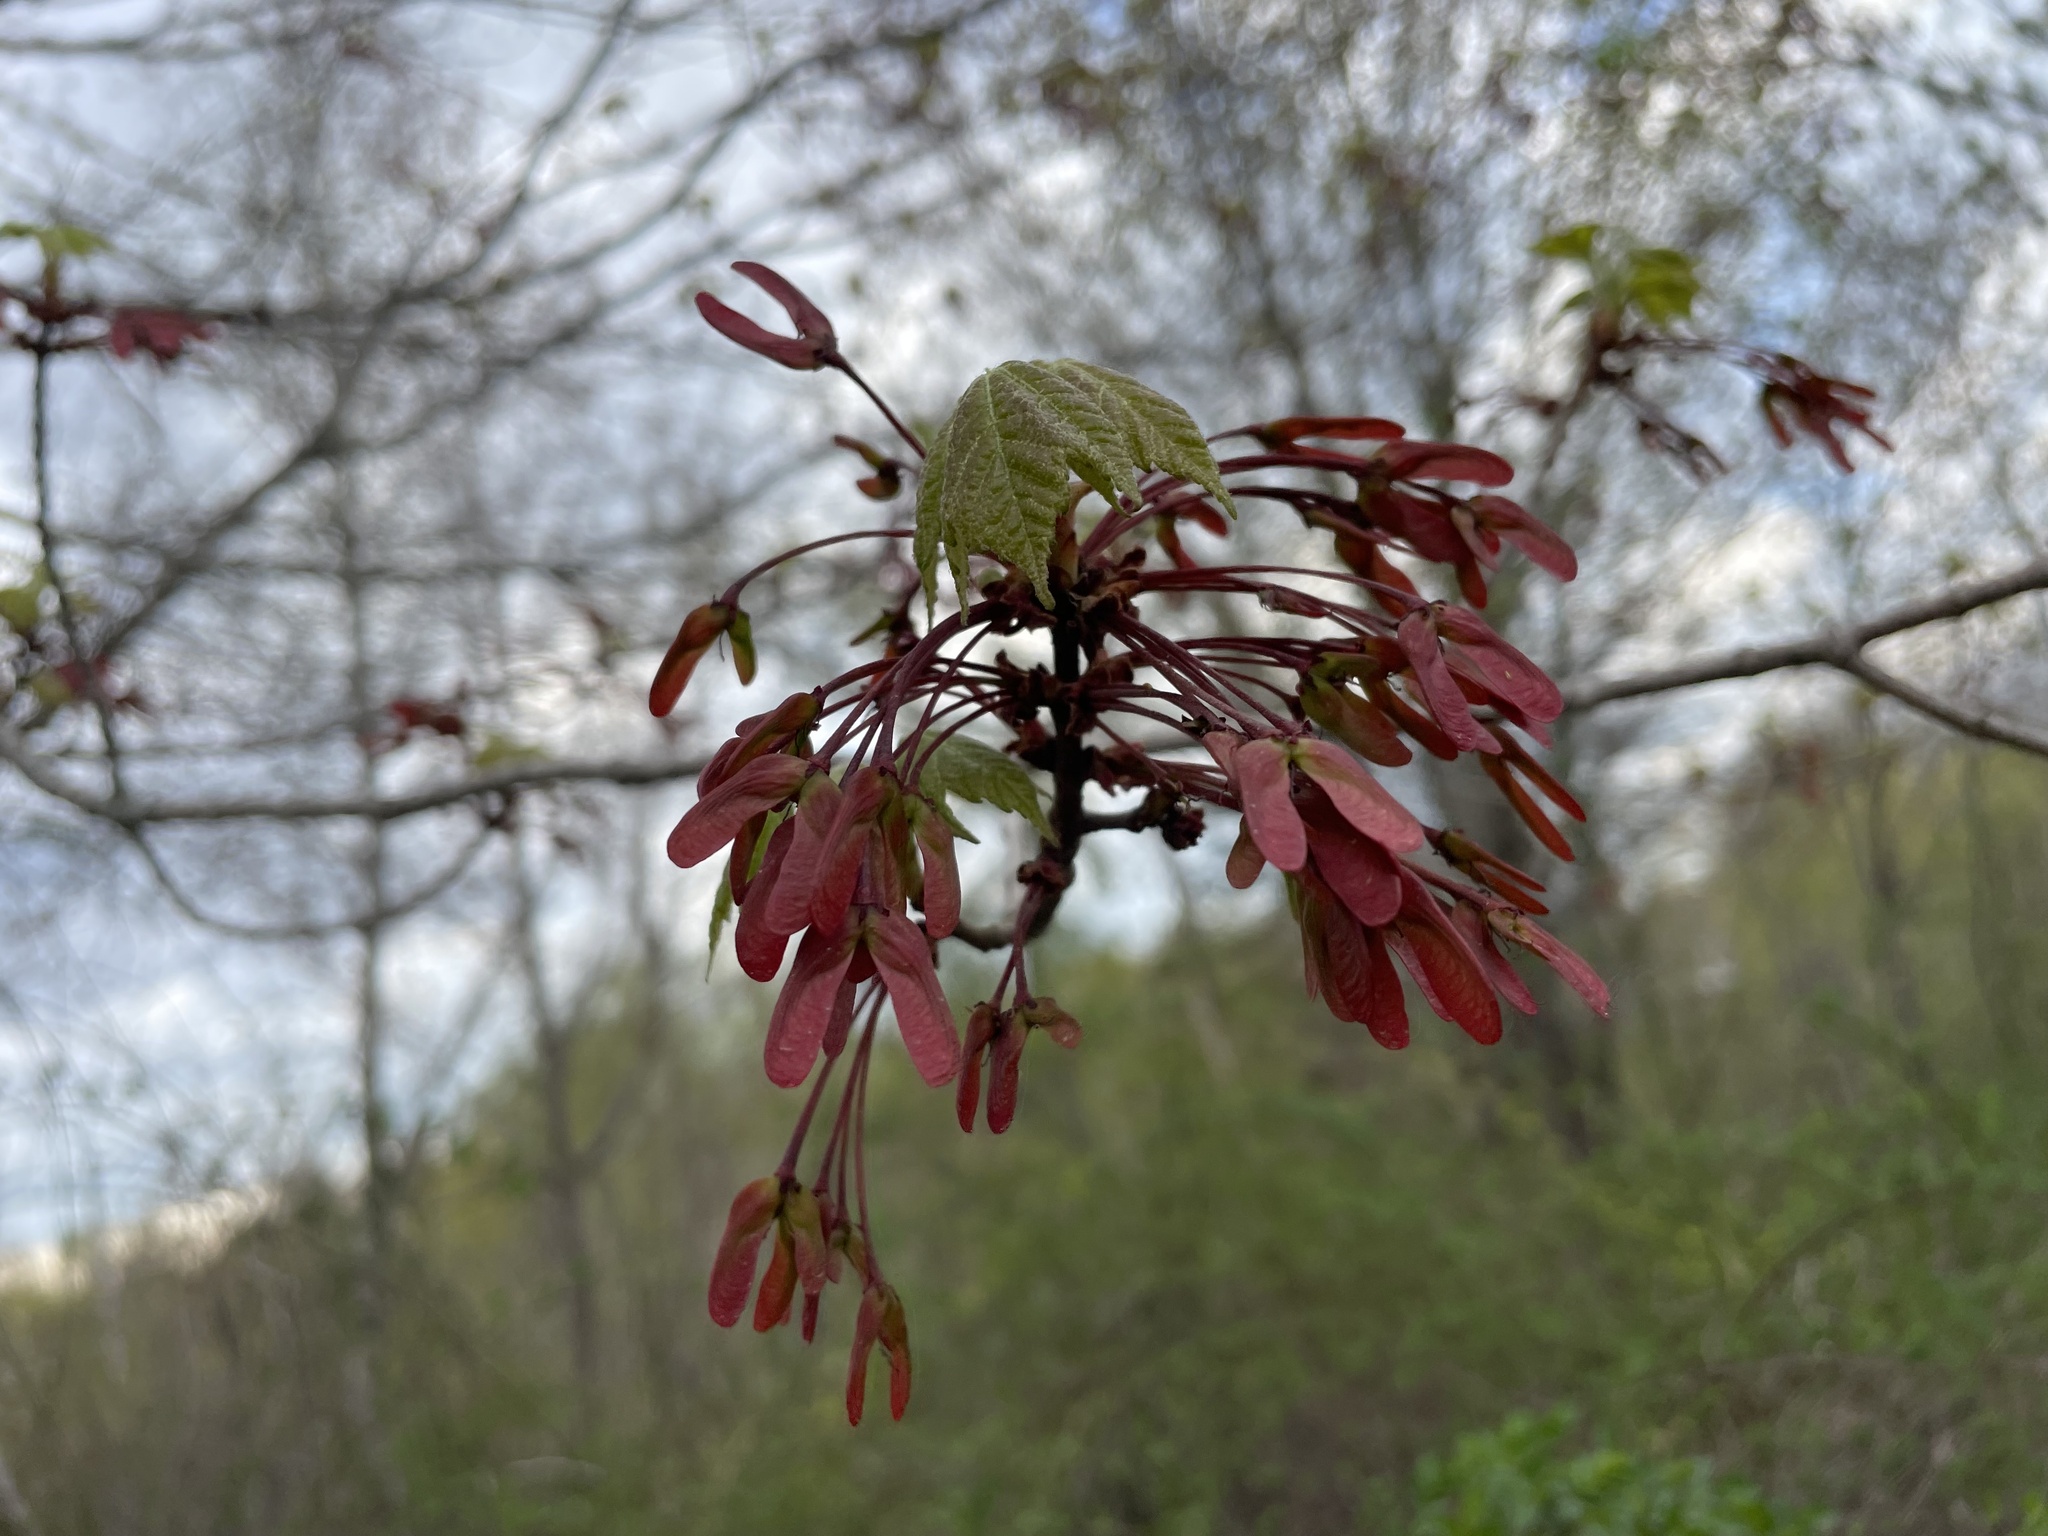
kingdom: Plantae
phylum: Tracheophyta
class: Magnoliopsida
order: Sapindales
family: Sapindaceae
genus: Acer
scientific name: Acer rubrum
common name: Red maple
